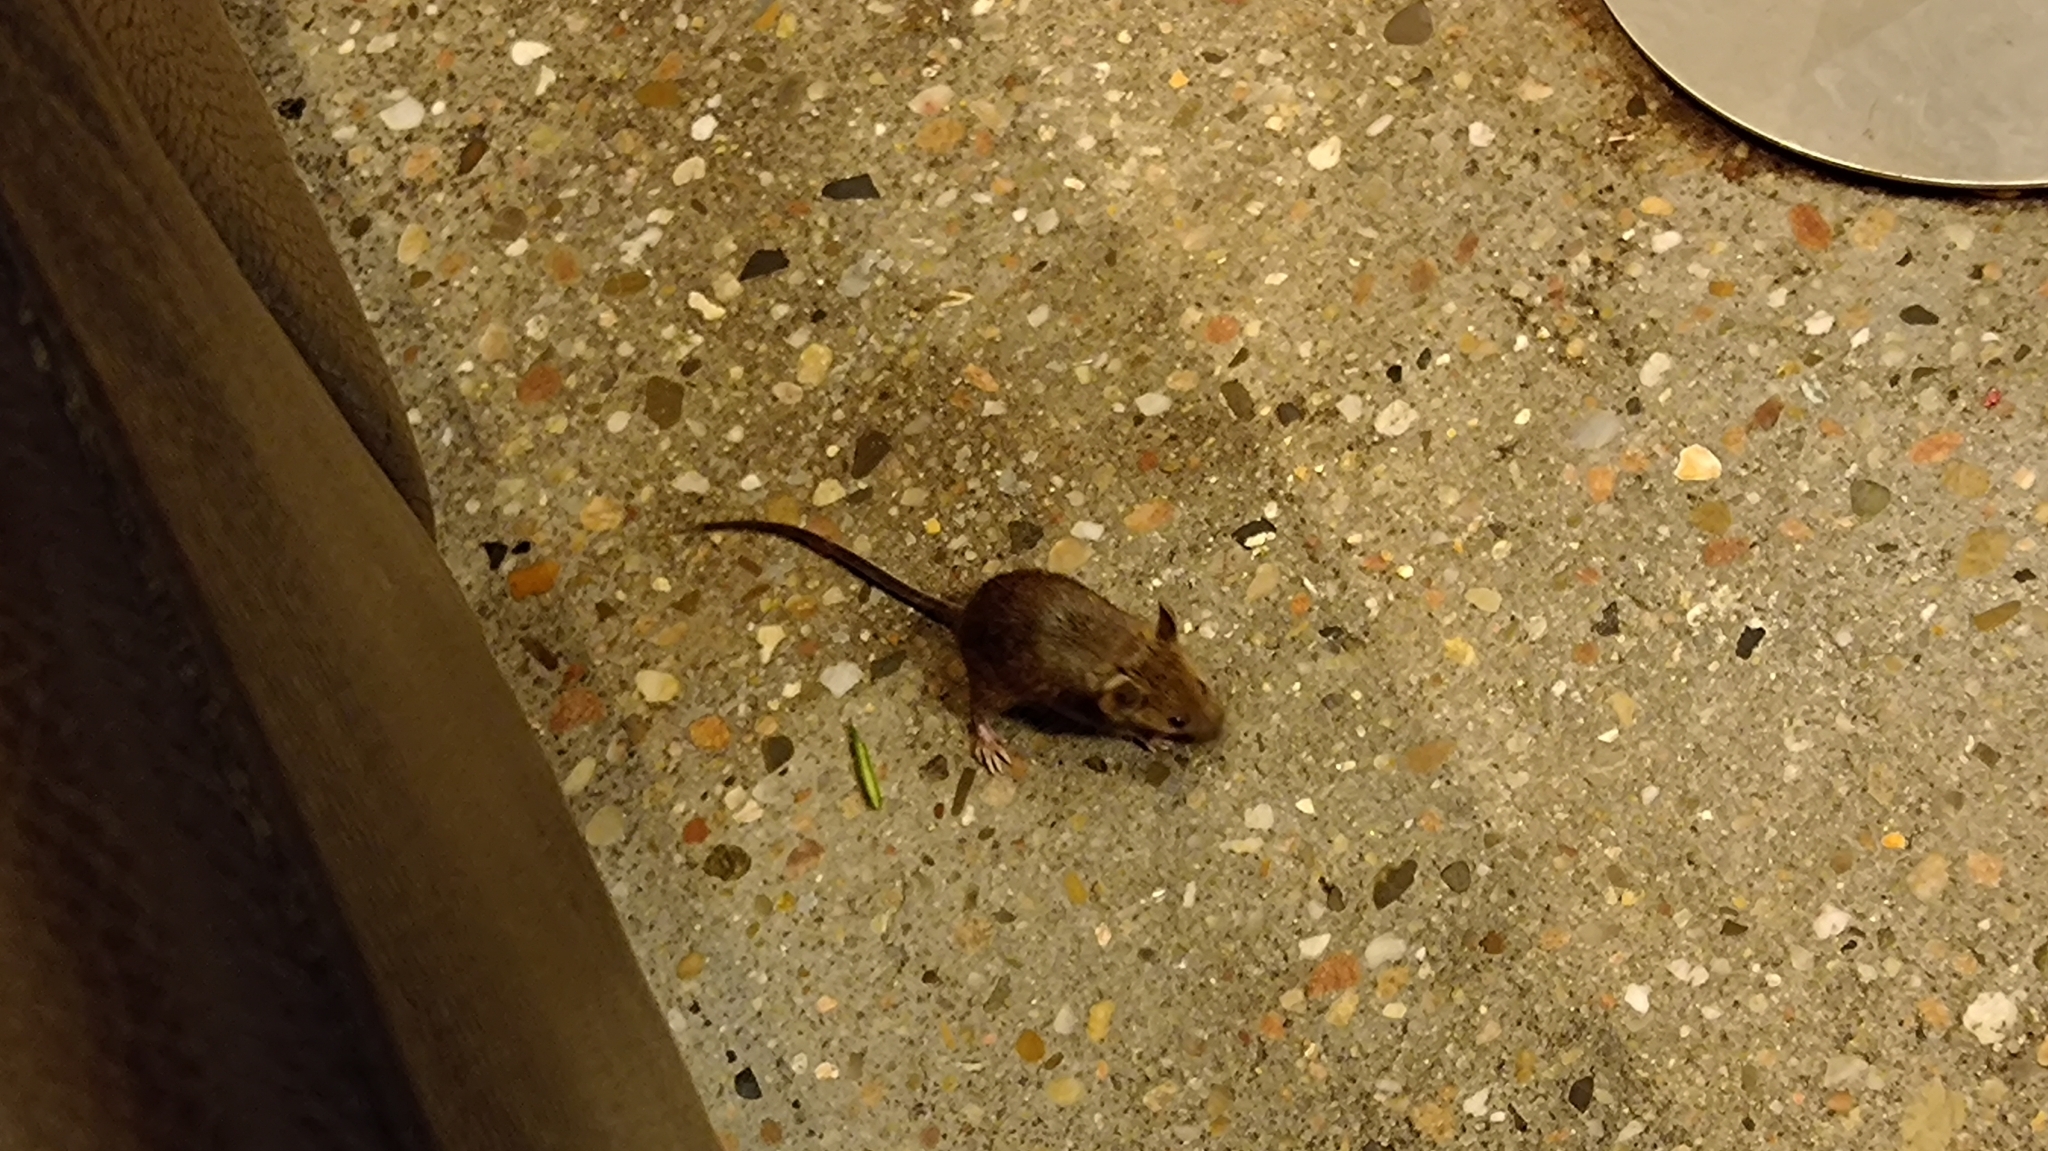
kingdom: Animalia
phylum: Chordata
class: Mammalia
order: Rodentia
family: Muridae
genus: Mus
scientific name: Mus musculus
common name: House mouse
